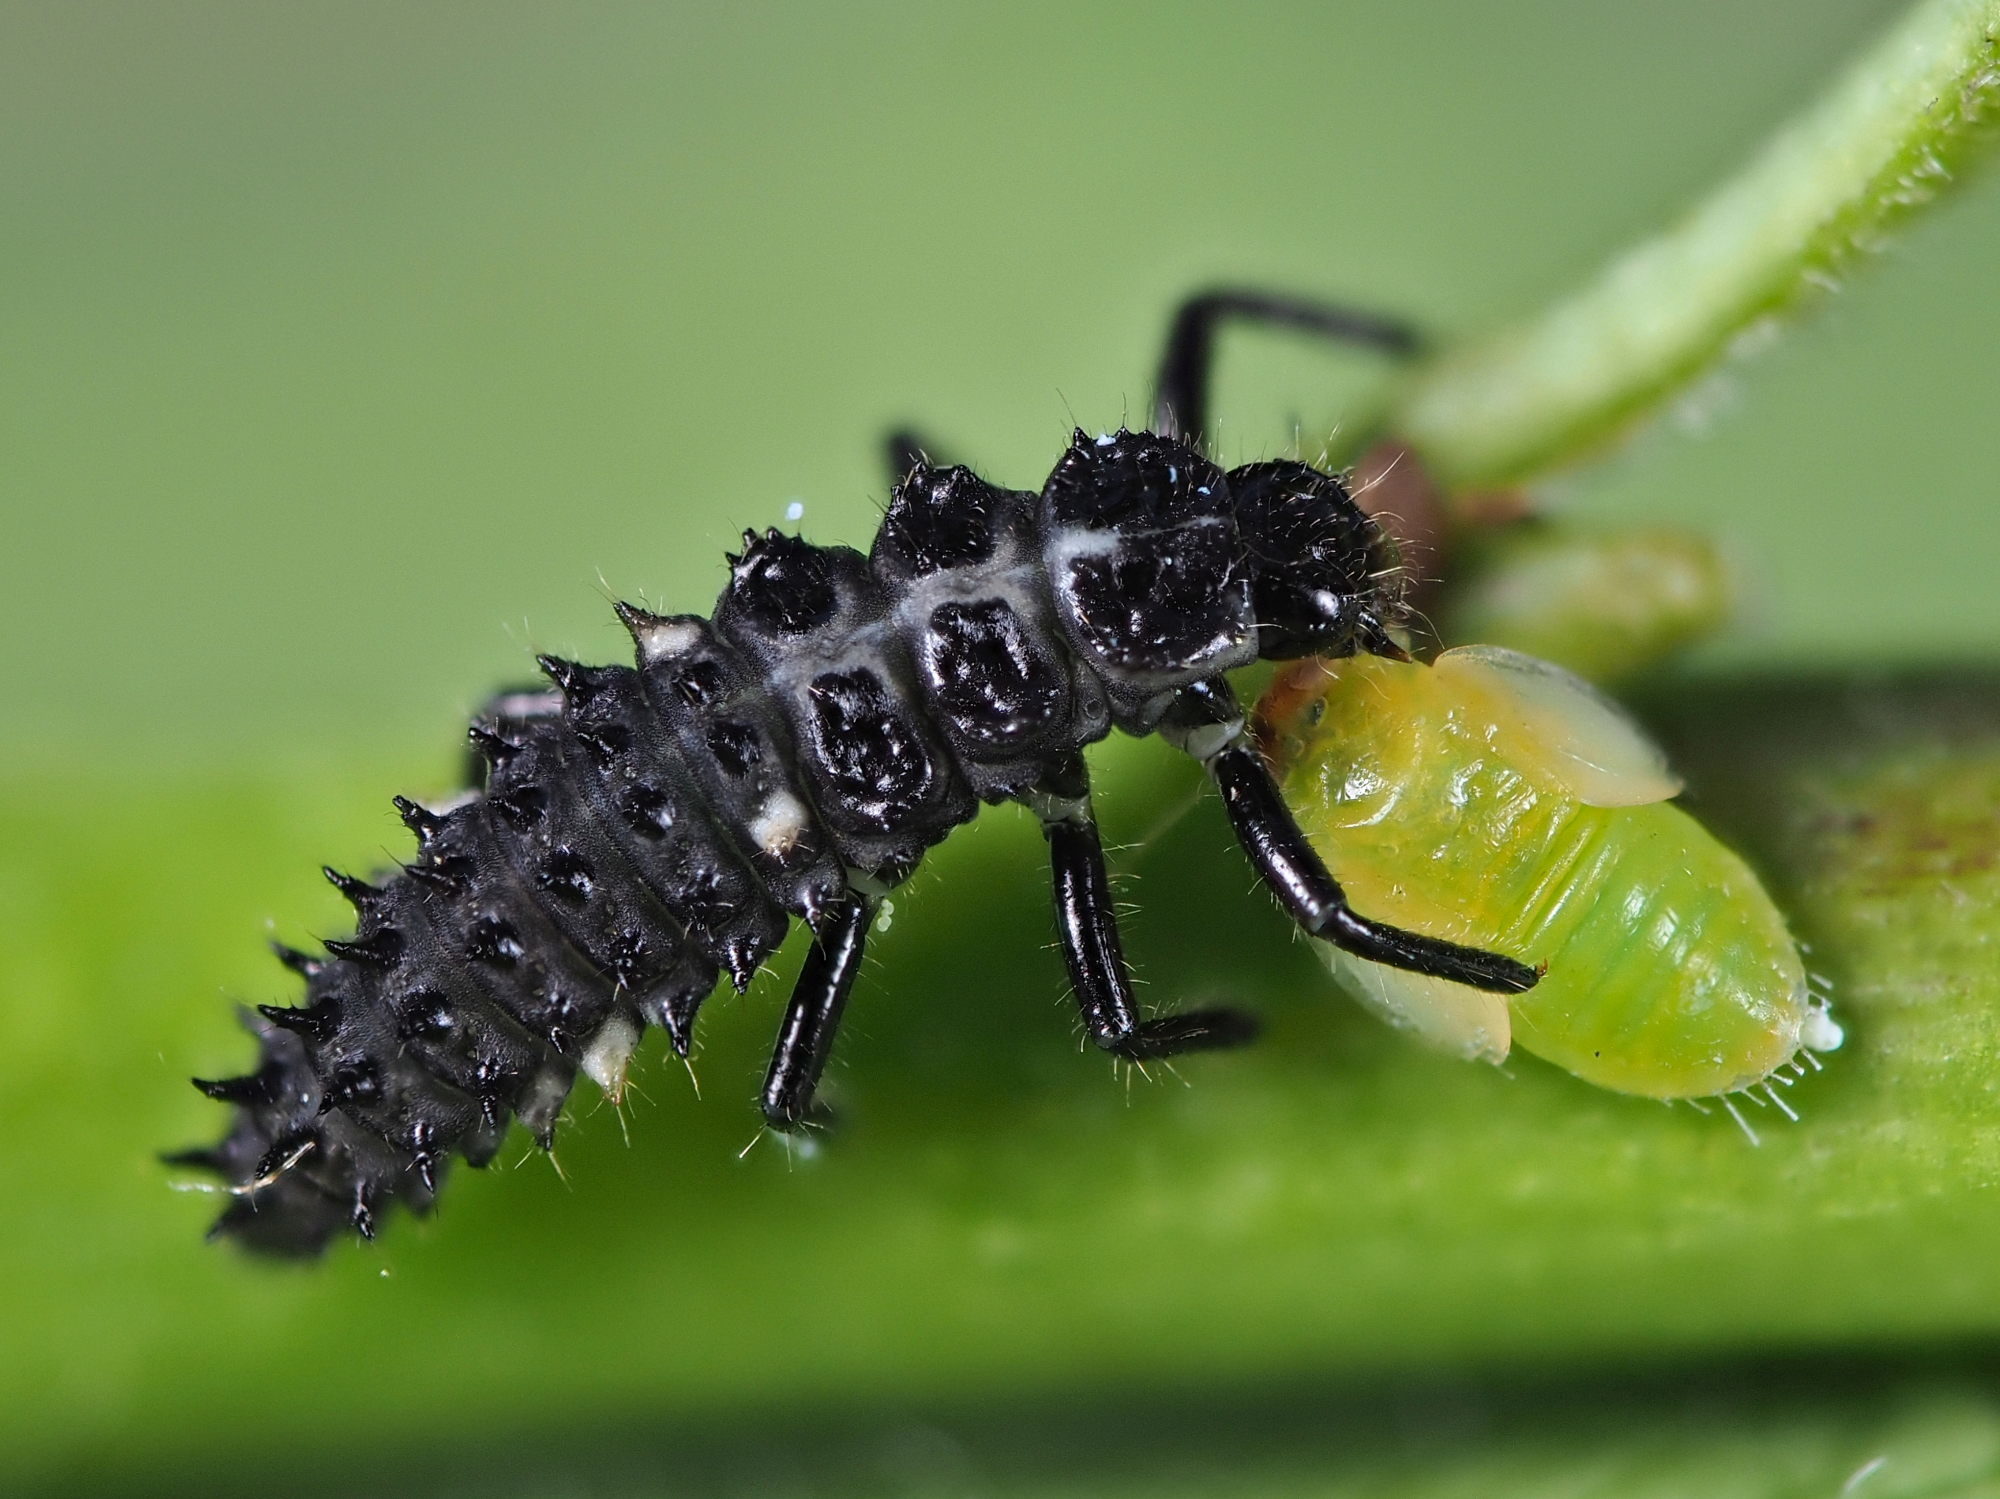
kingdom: Animalia
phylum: Arthropoda
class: Insecta
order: Coleoptera
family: Coccinellidae
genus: Calvia
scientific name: Calvia quatuordecimguttata
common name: Cream-spot ladybird
